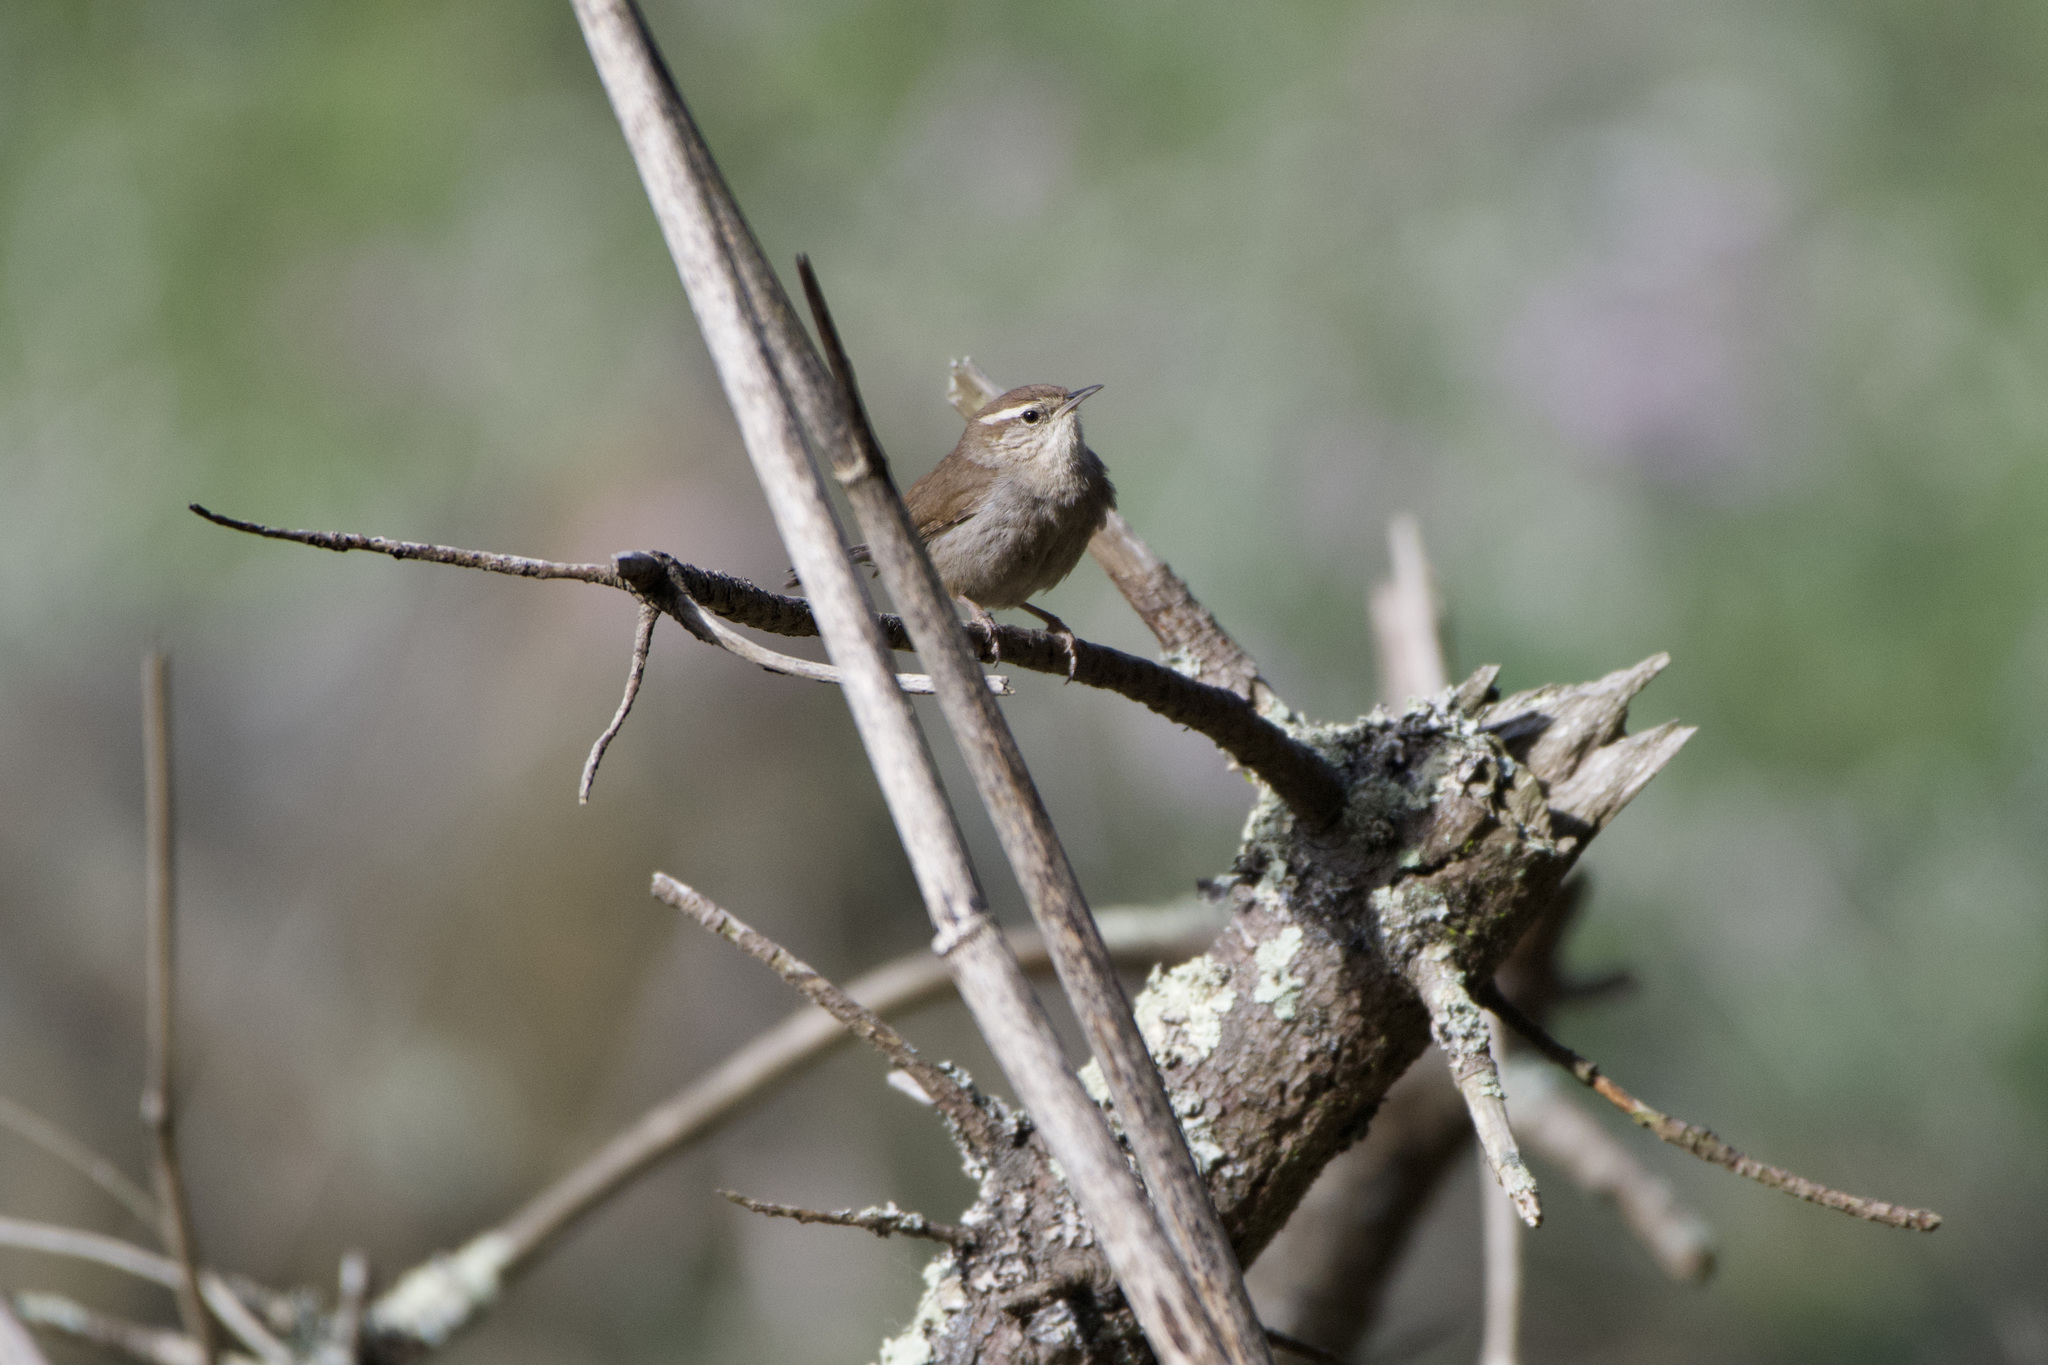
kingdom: Animalia
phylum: Chordata
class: Aves
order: Passeriformes
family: Troglodytidae
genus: Thryomanes
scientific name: Thryomanes bewickii
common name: Bewick's wren
